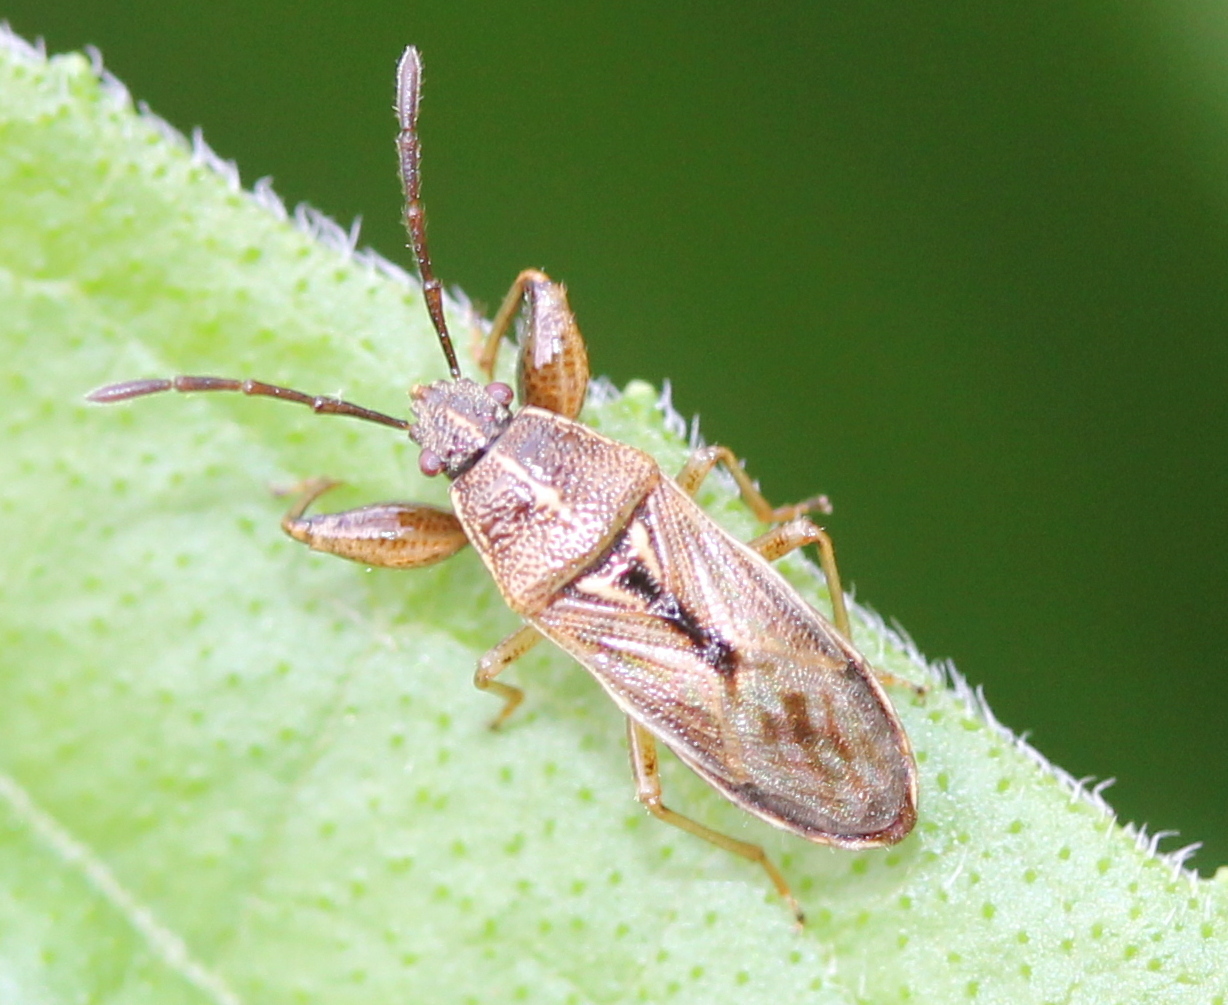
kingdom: Animalia
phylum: Arthropoda
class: Insecta
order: Hemiptera
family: Pachygronthidae
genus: Oedancala
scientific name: Oedancala dorsalis
